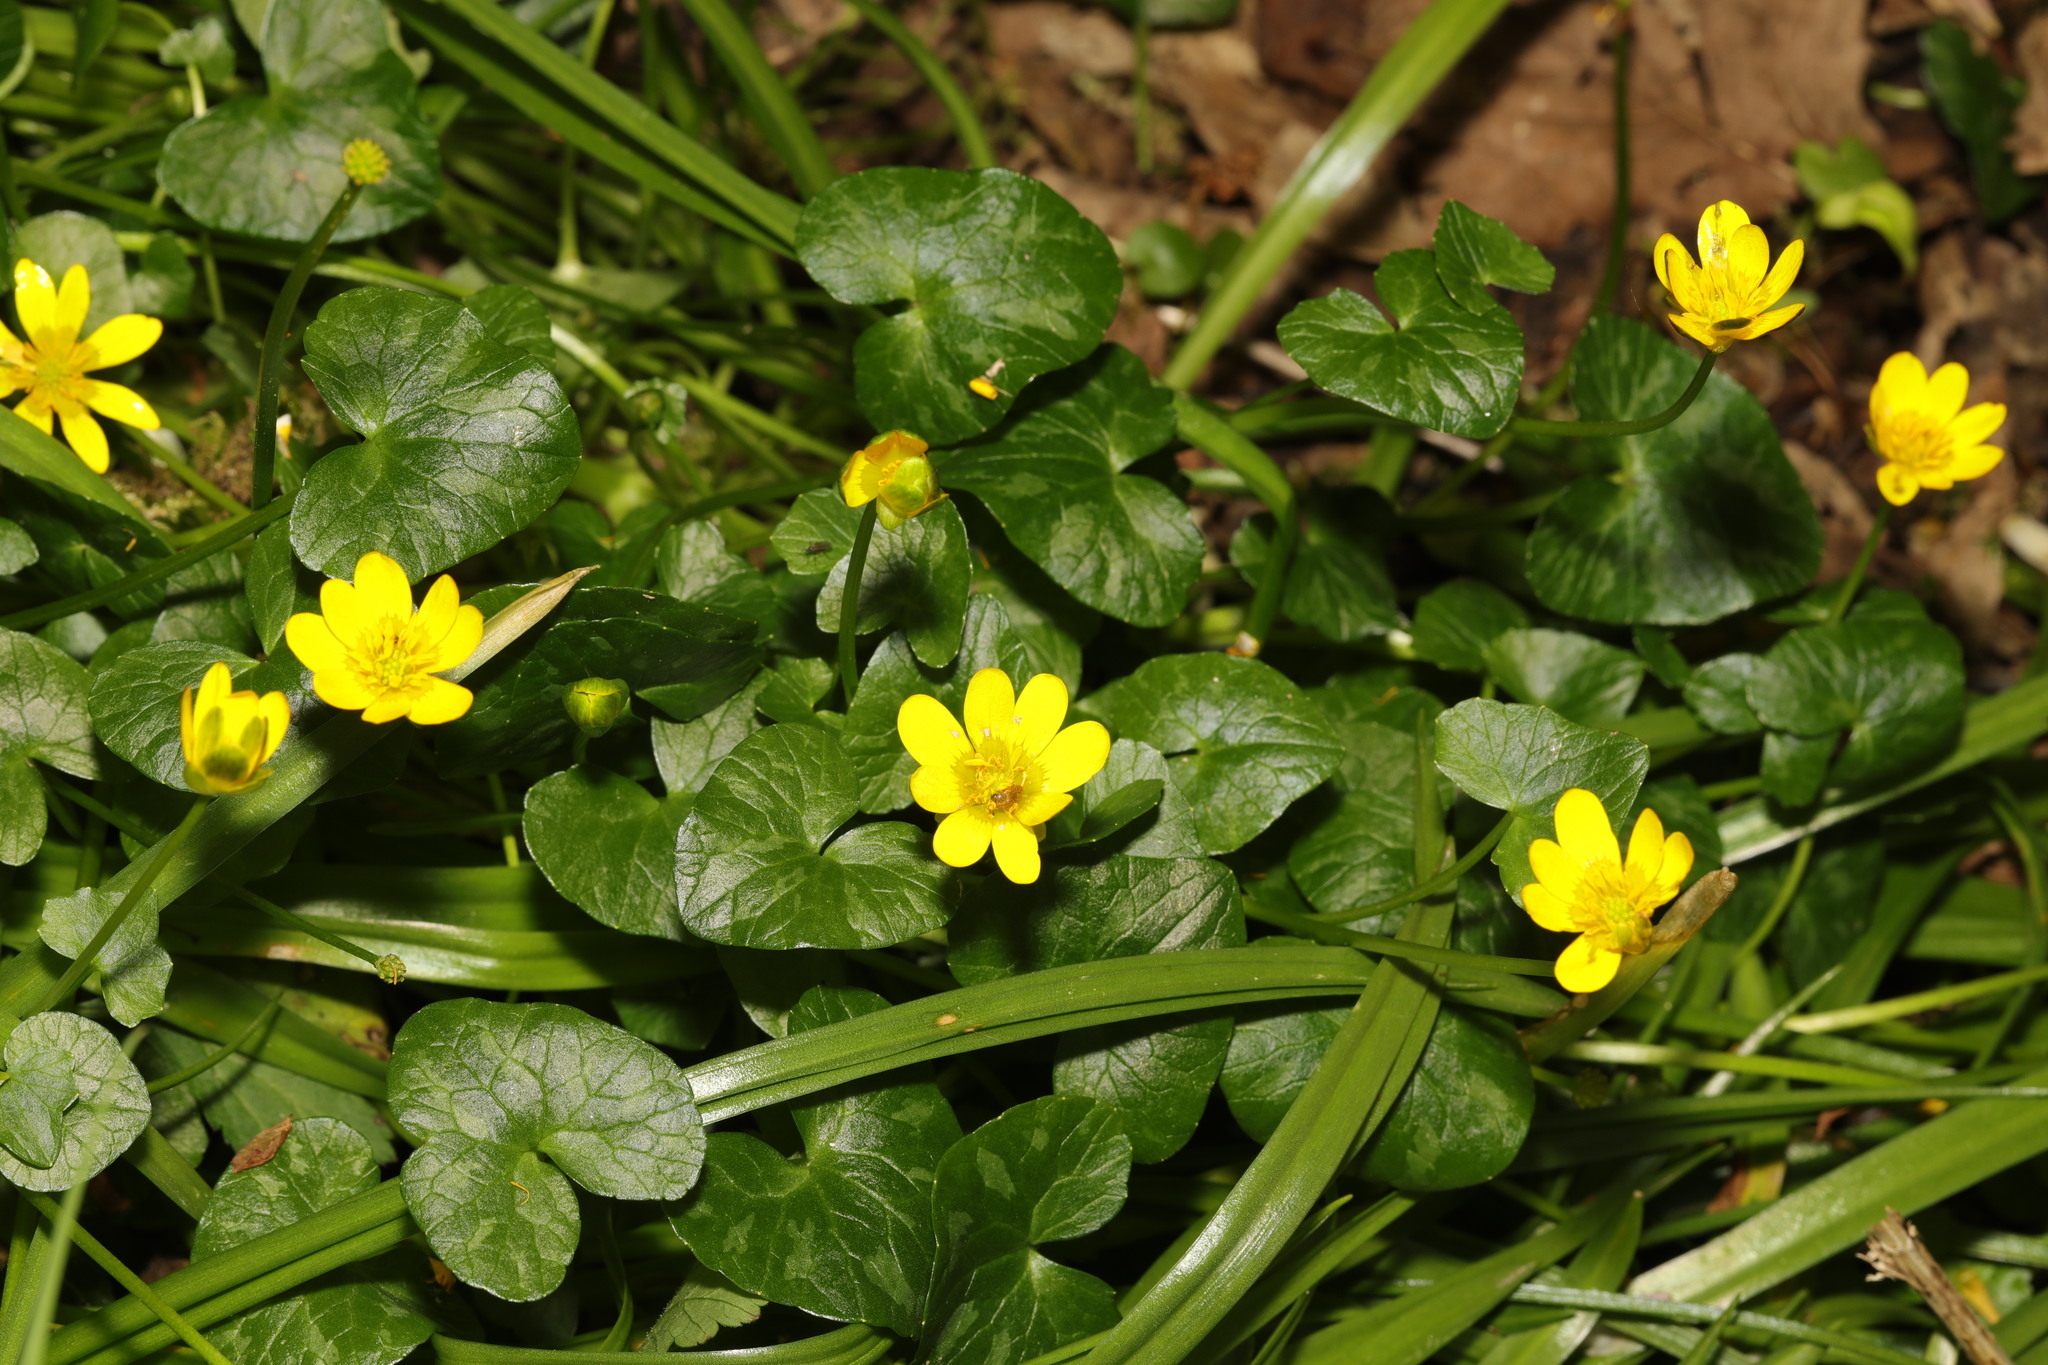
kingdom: Plantae
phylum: Tracheophyta
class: Magnoliopsida
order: Ranunculales
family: Ranunculaceae
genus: Ficaria
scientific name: Ficaria verna
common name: Lesser celandine
